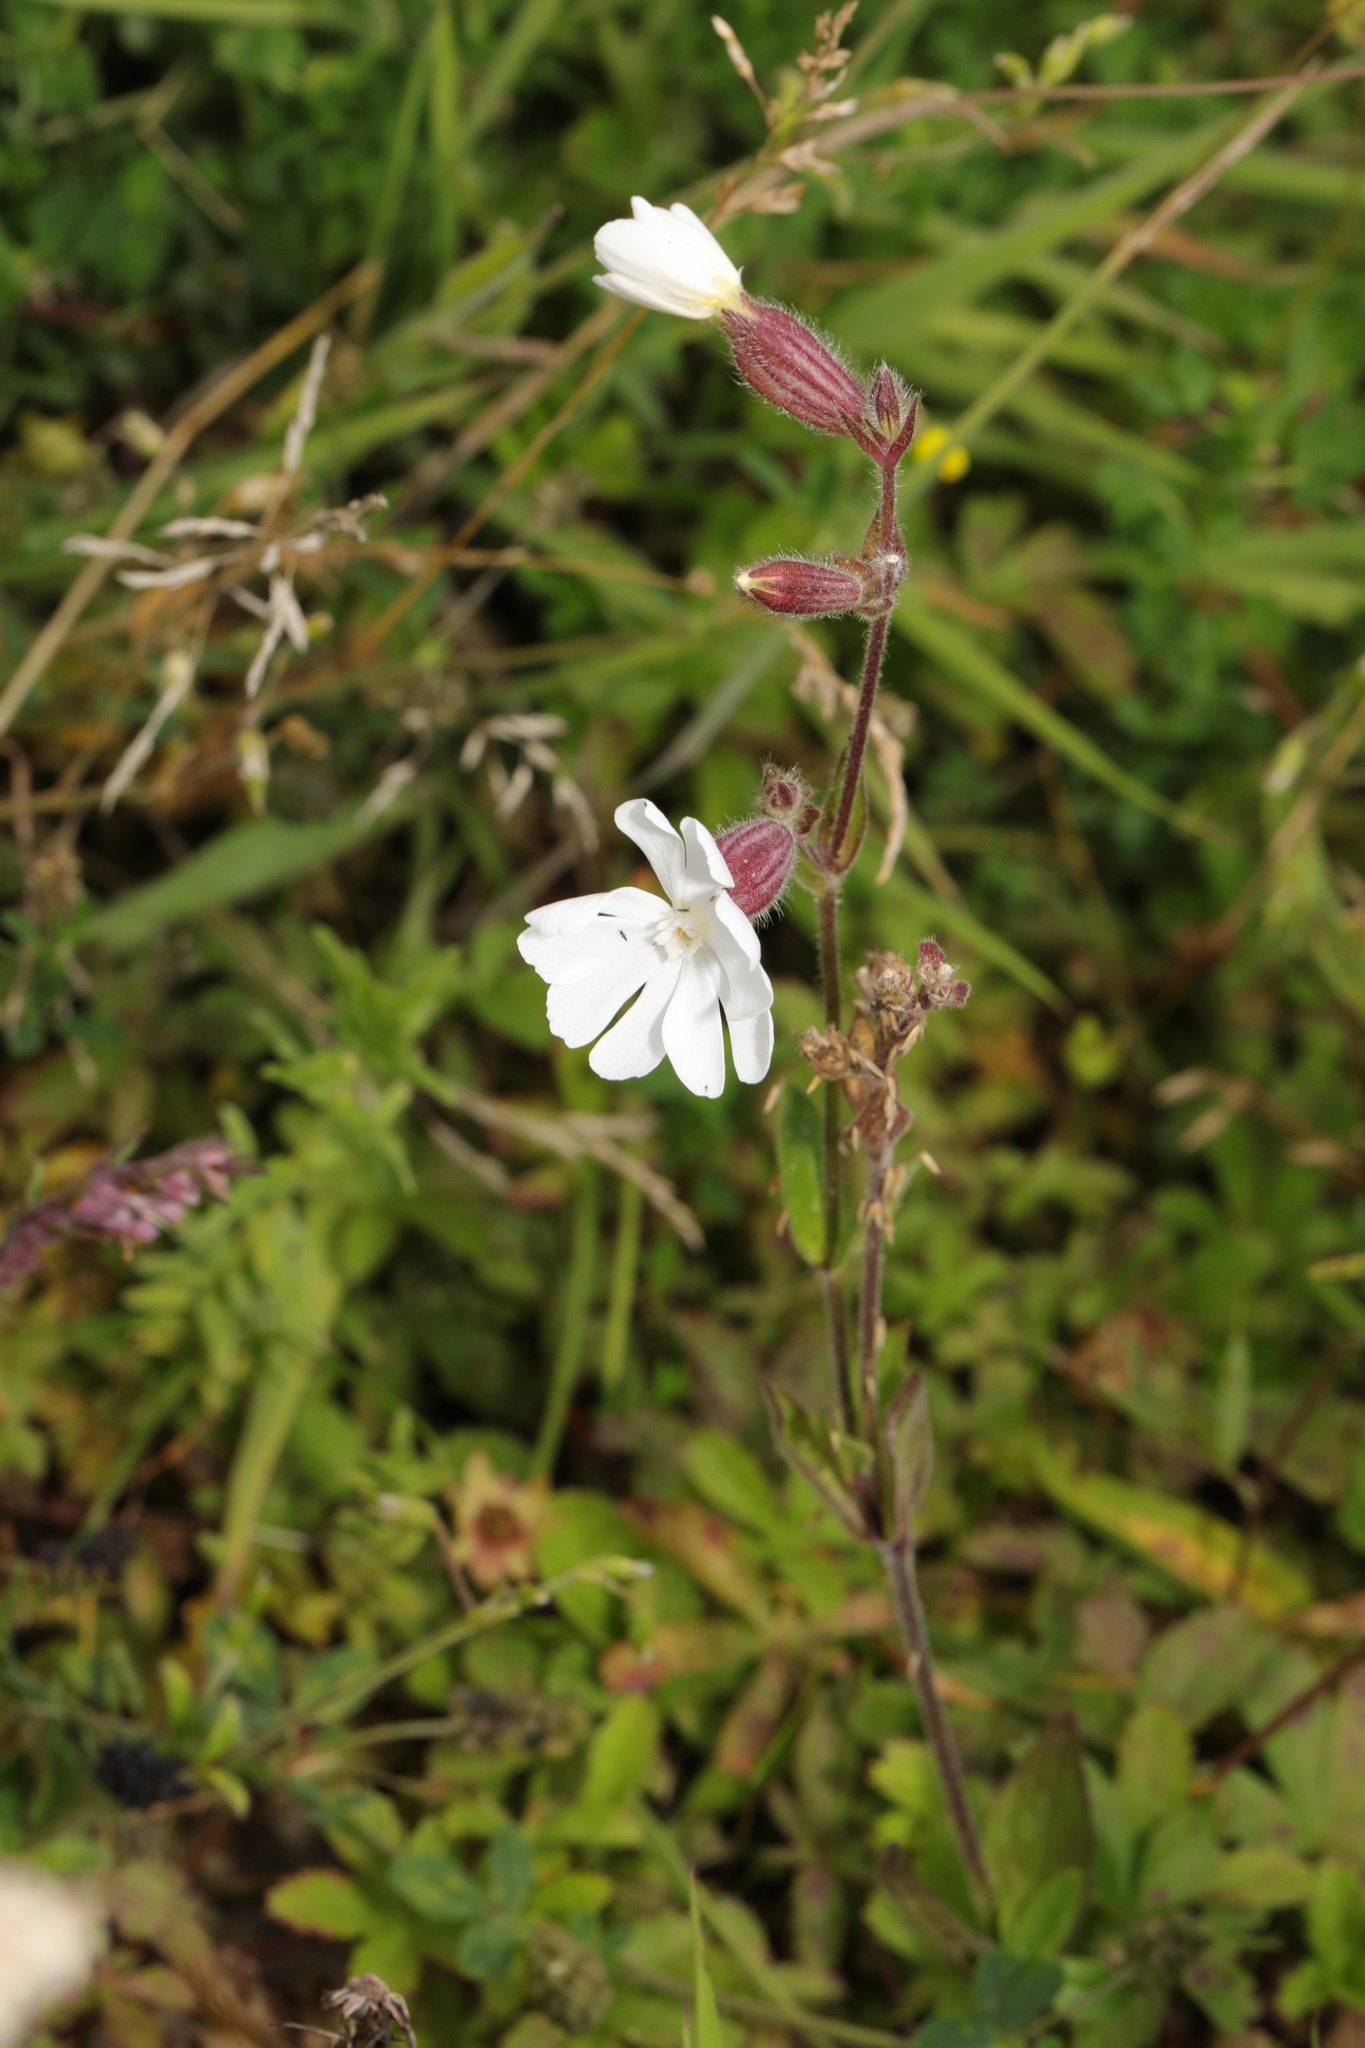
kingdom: Plantae
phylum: Tracheophyta
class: Magnoliopsida
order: Caryophyllales
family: Caryophyllaceae
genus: Silene
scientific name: Silene latifolia
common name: White campion
